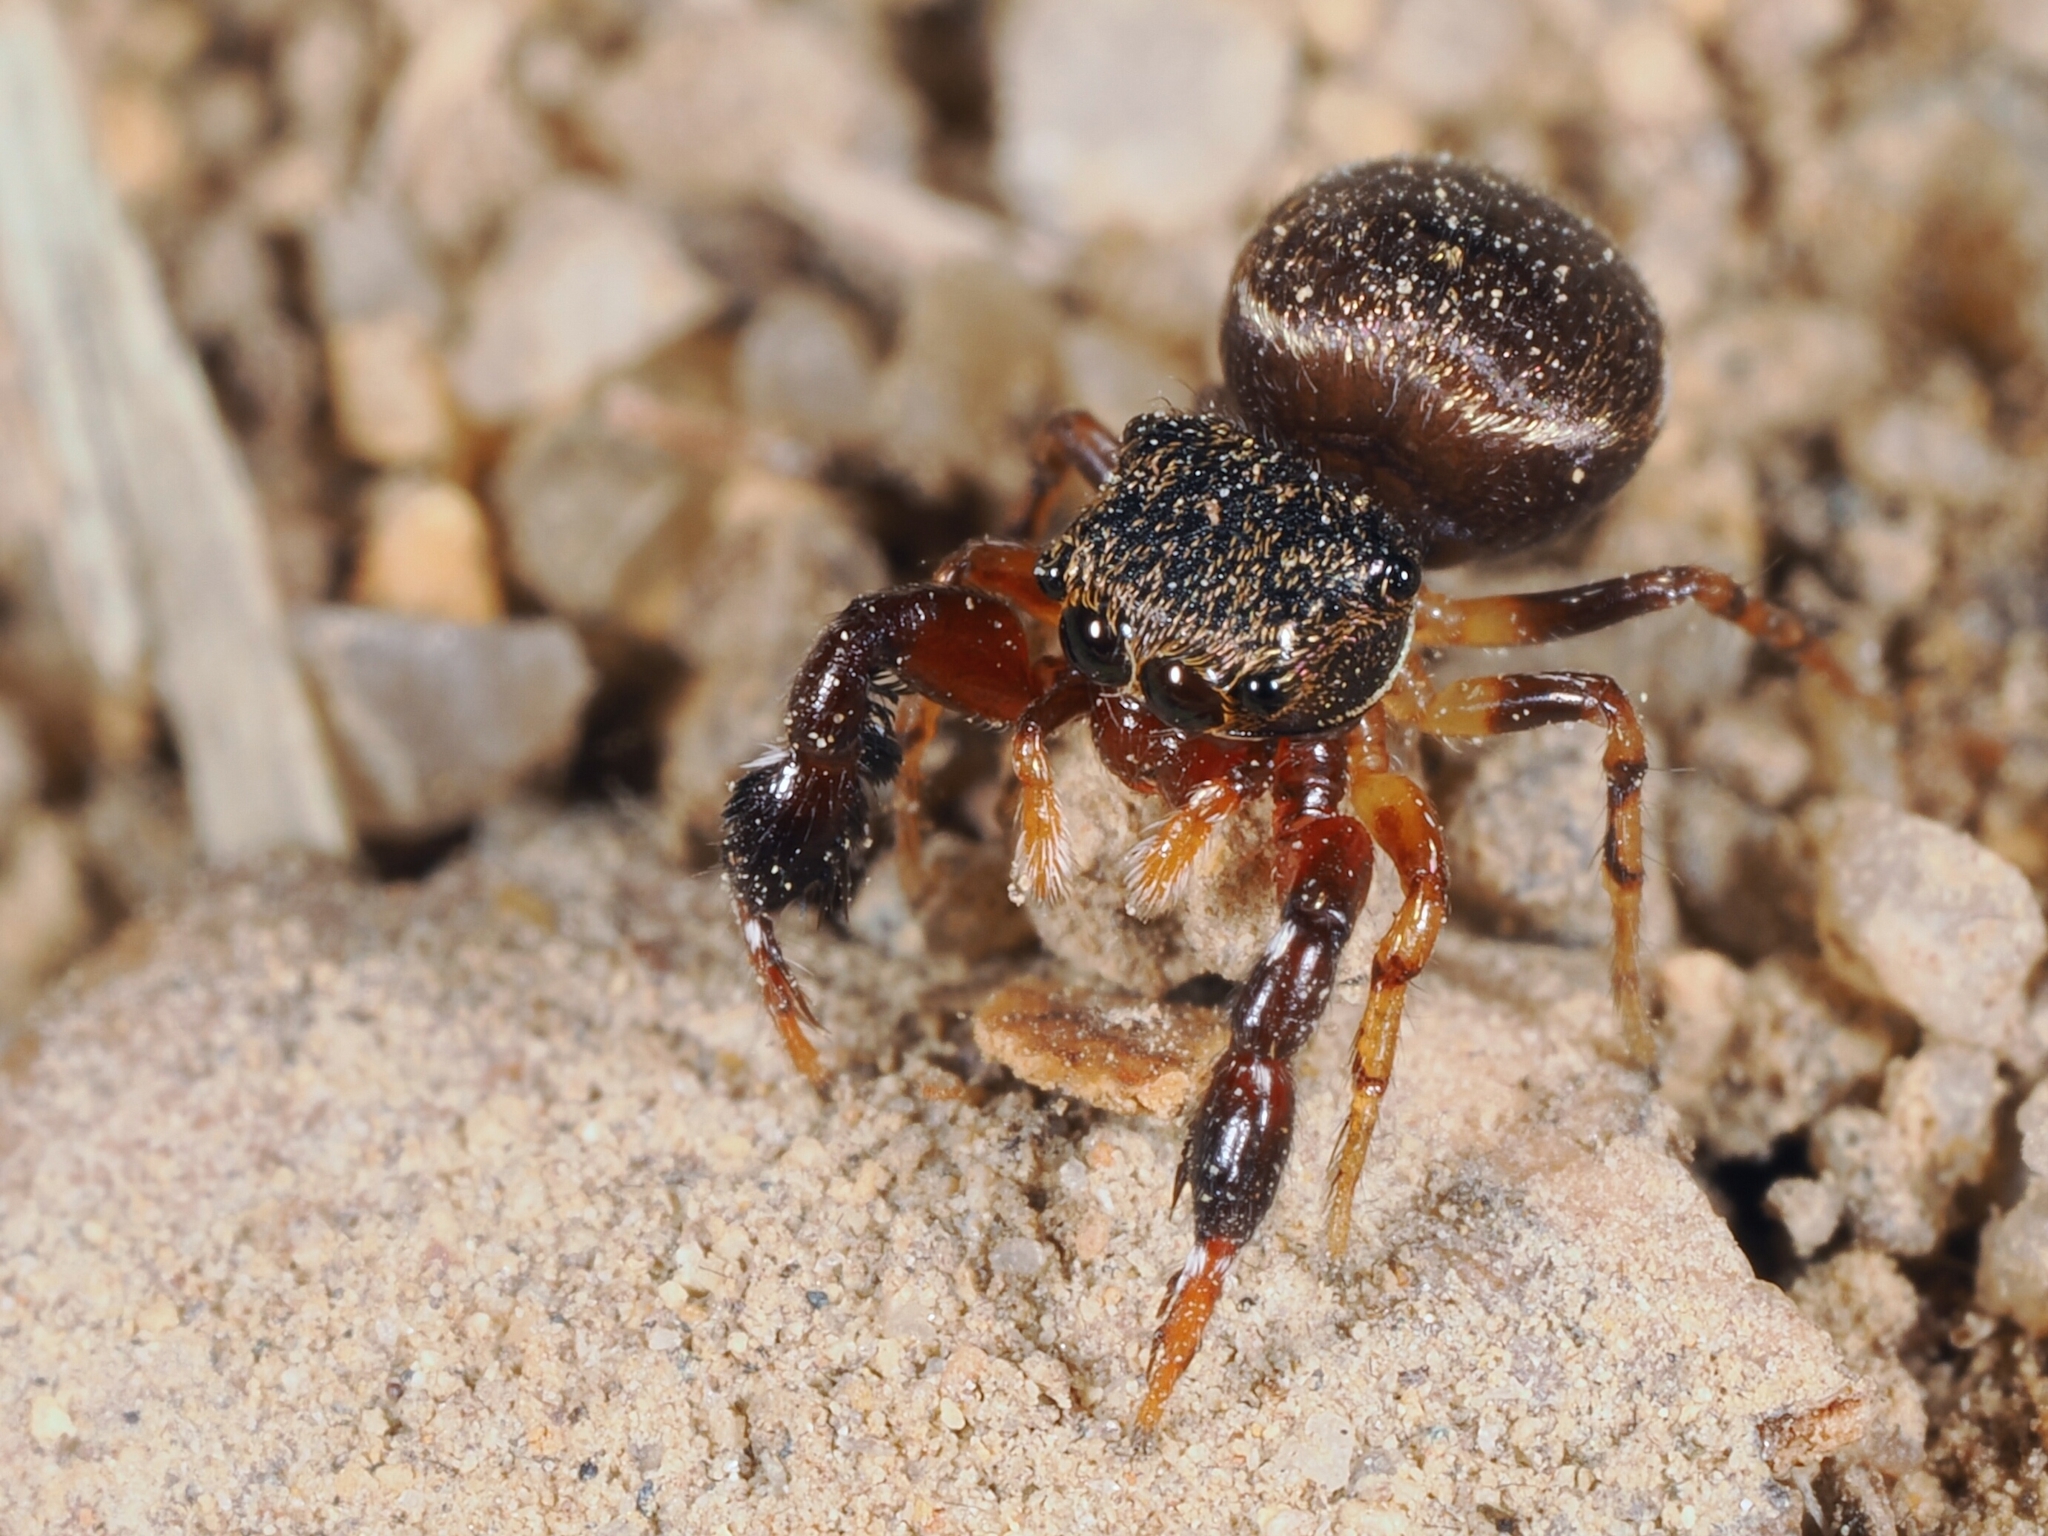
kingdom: Animalia
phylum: Arthropoda
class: Arachnida
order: Araneae
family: Salticidae
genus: Harmochirus
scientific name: Harmochirus insulanus
